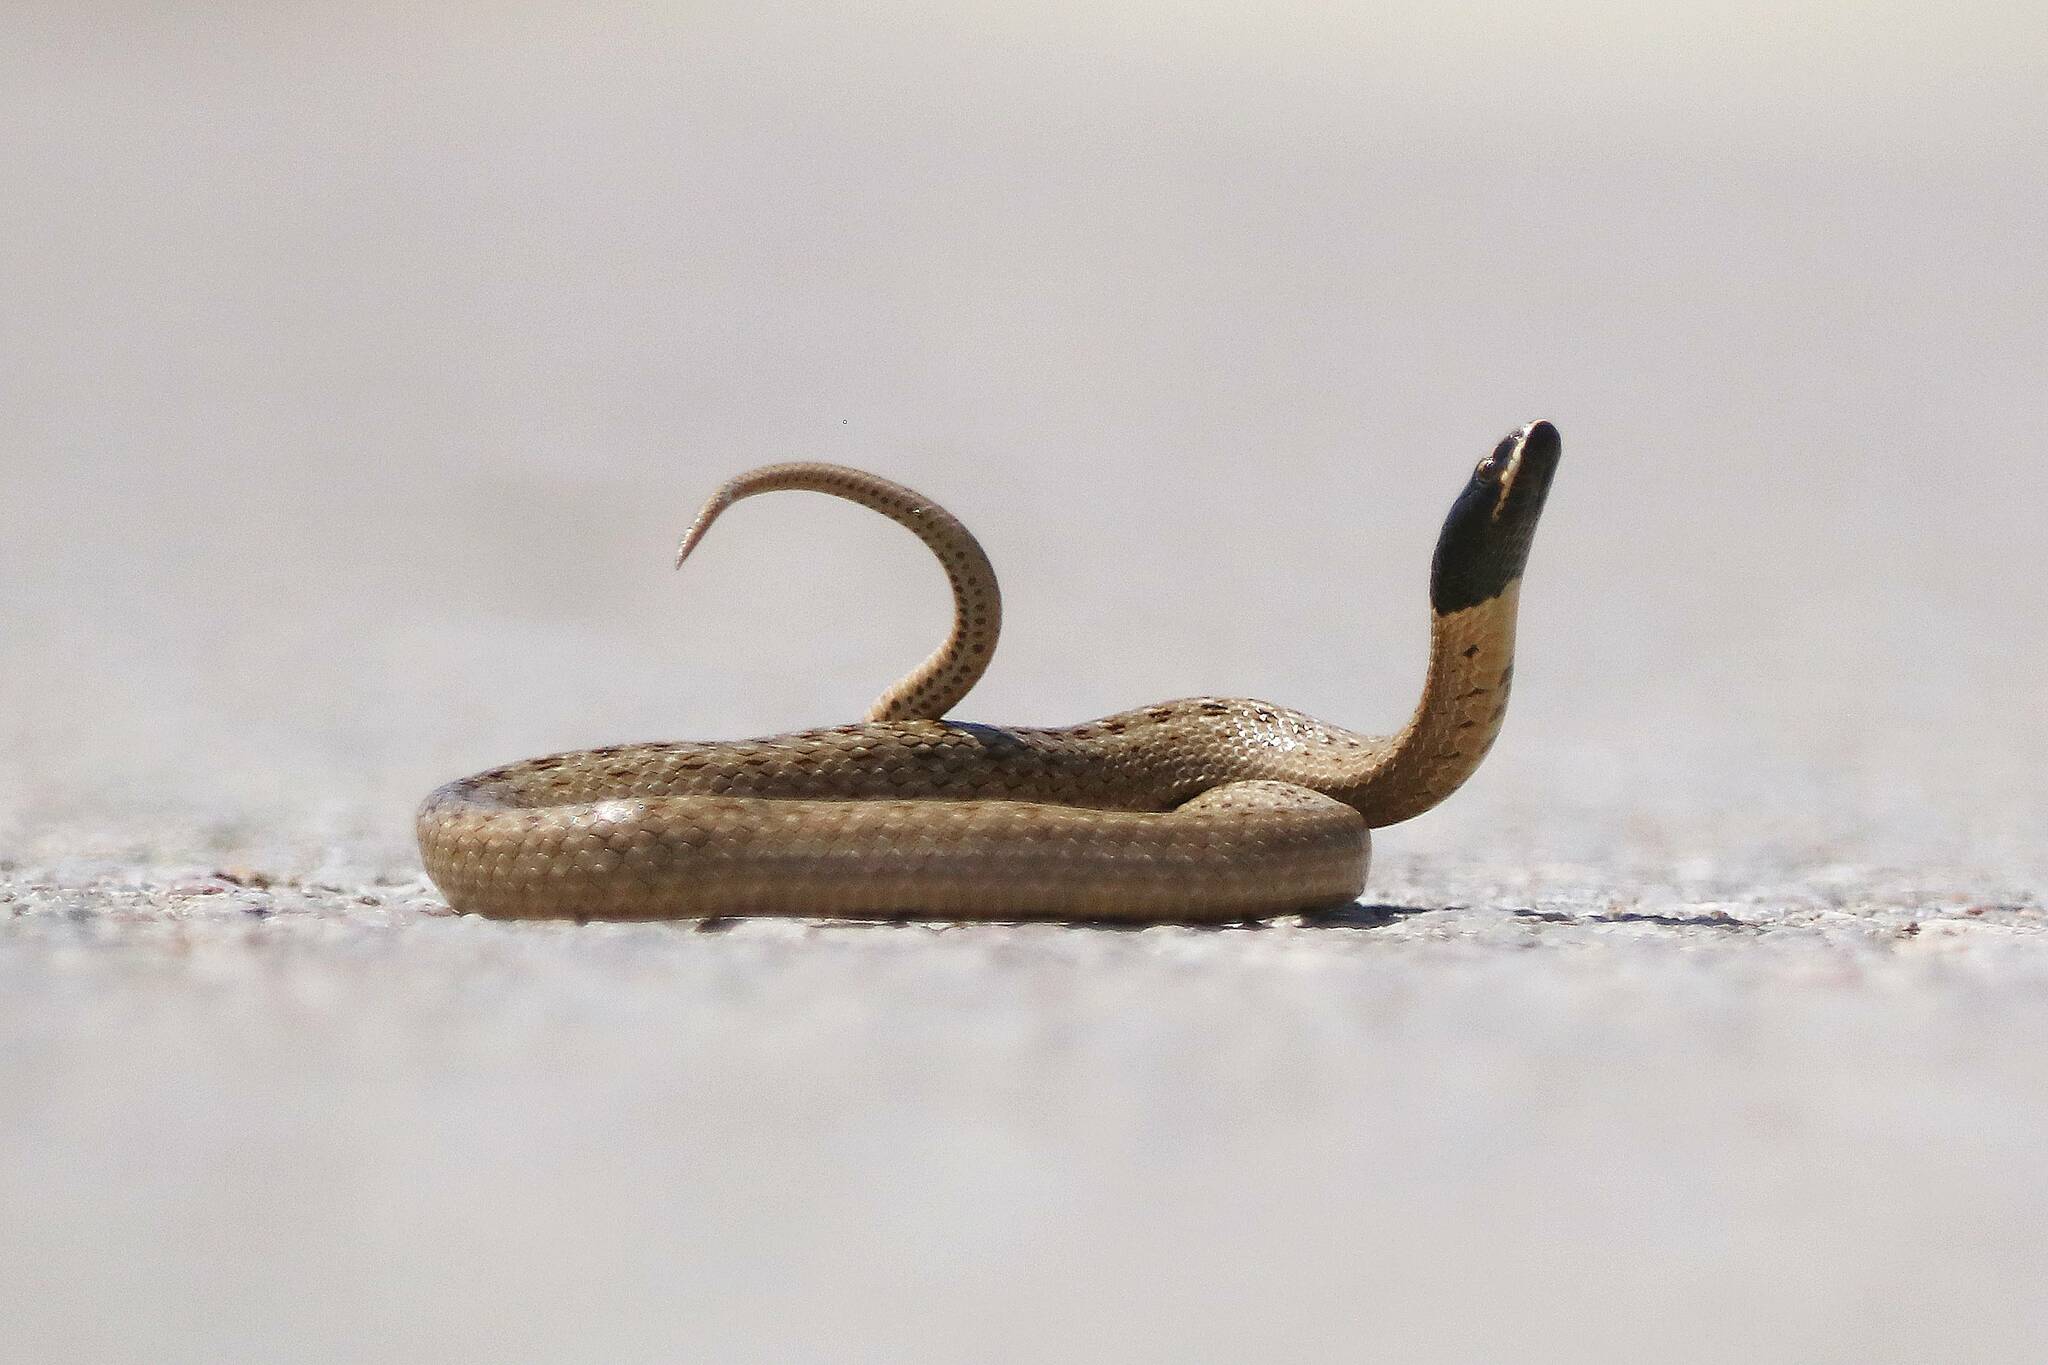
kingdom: Animalia
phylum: Chordata
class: Squamata
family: Colubridae
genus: Macroprotodon
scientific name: Macroprotodon mauritanicus
